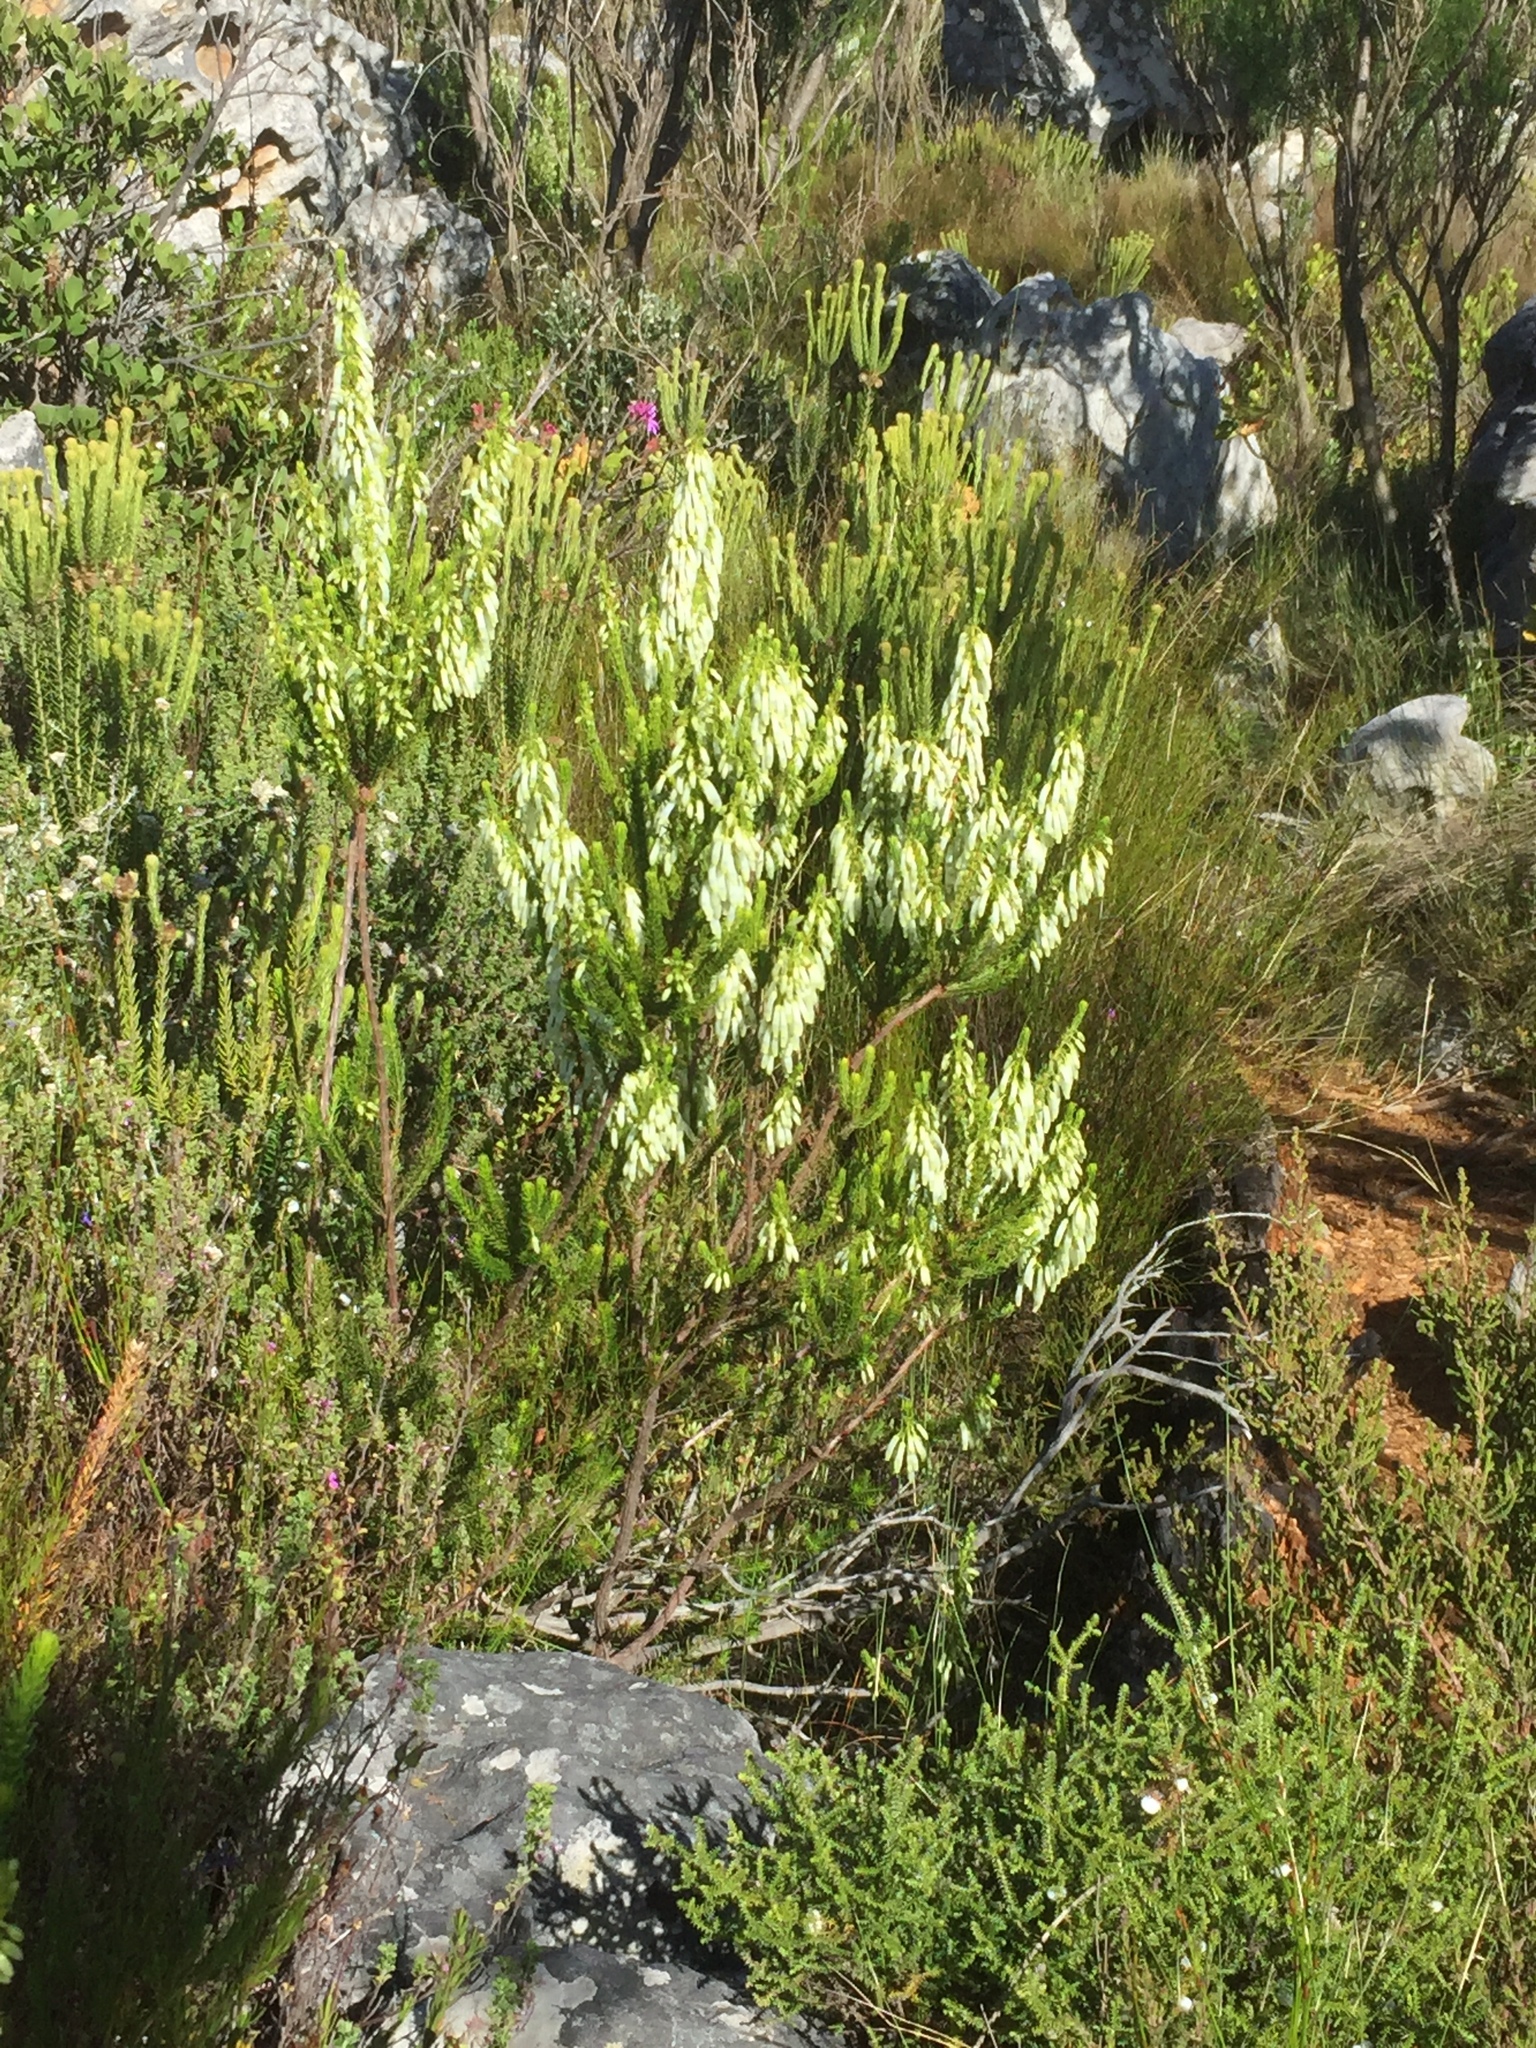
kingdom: Plantae
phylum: Tracheophyta
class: Magnoliopsida
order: Ericales
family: Ericaceae
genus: Erica
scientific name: Erica mammosa
